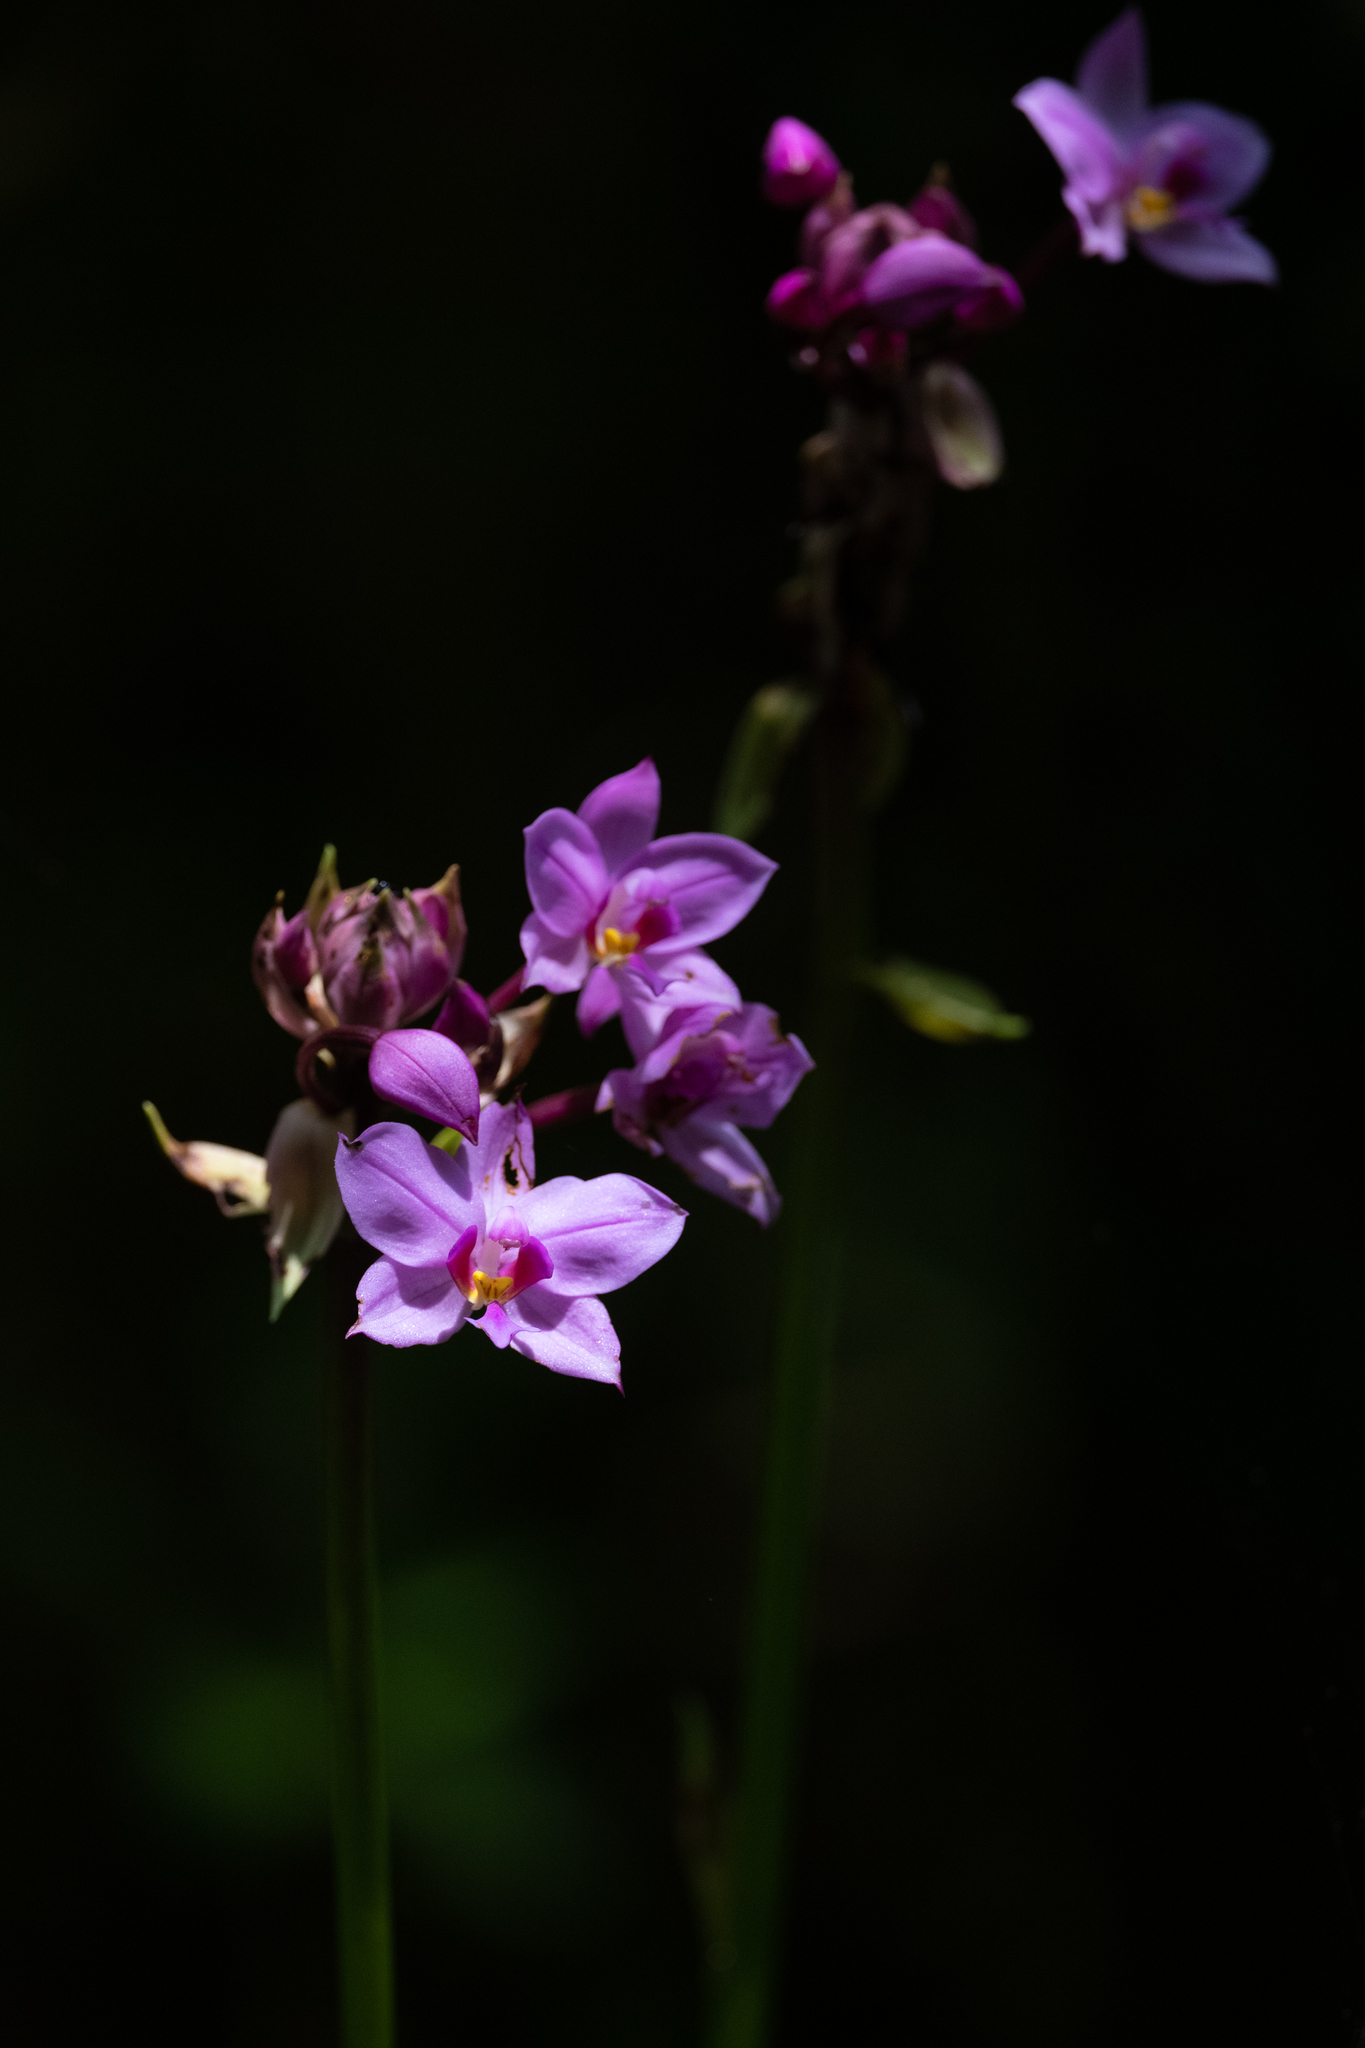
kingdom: Plantae
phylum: Tracheophyta
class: Liliopsida
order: Asparagales
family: Orchidaceae
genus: Spathoglottis
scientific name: Spathoglottis plicata
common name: Philippine ground orchid
